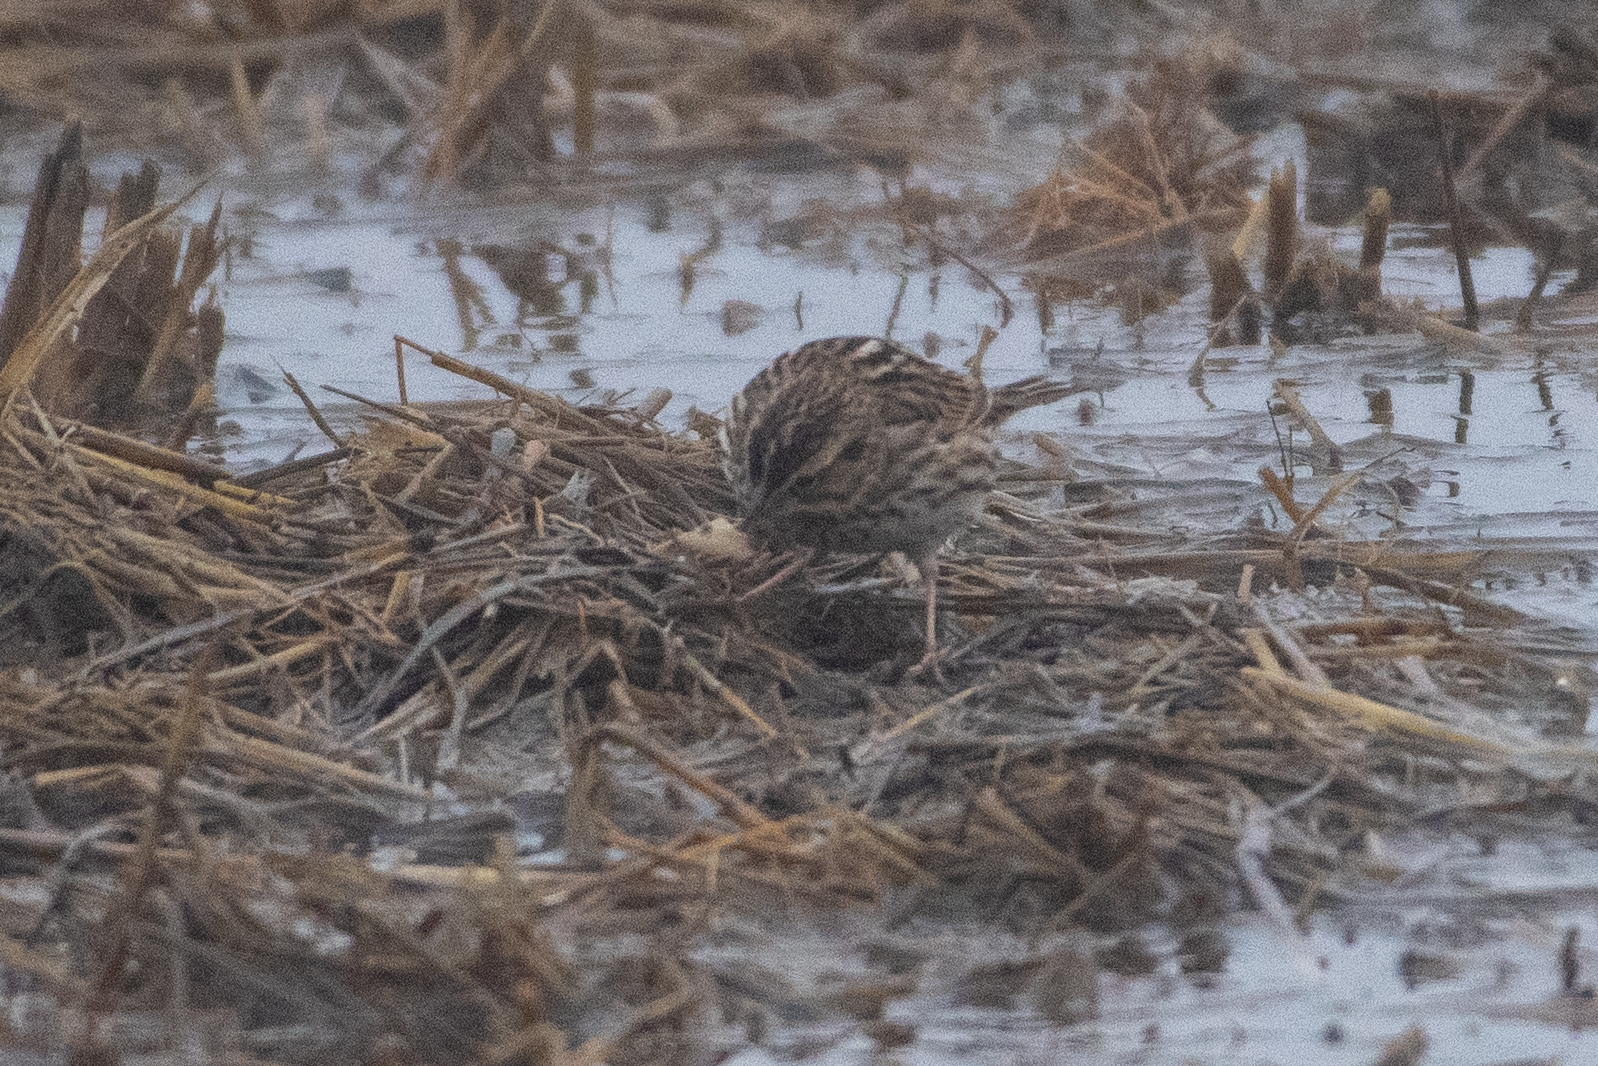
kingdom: Animalia
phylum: Chordata
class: Aves
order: Passeriformes
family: Passerellidae
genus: Passerculus
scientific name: Passerculus sandwichensis
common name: Savannah sparrow
